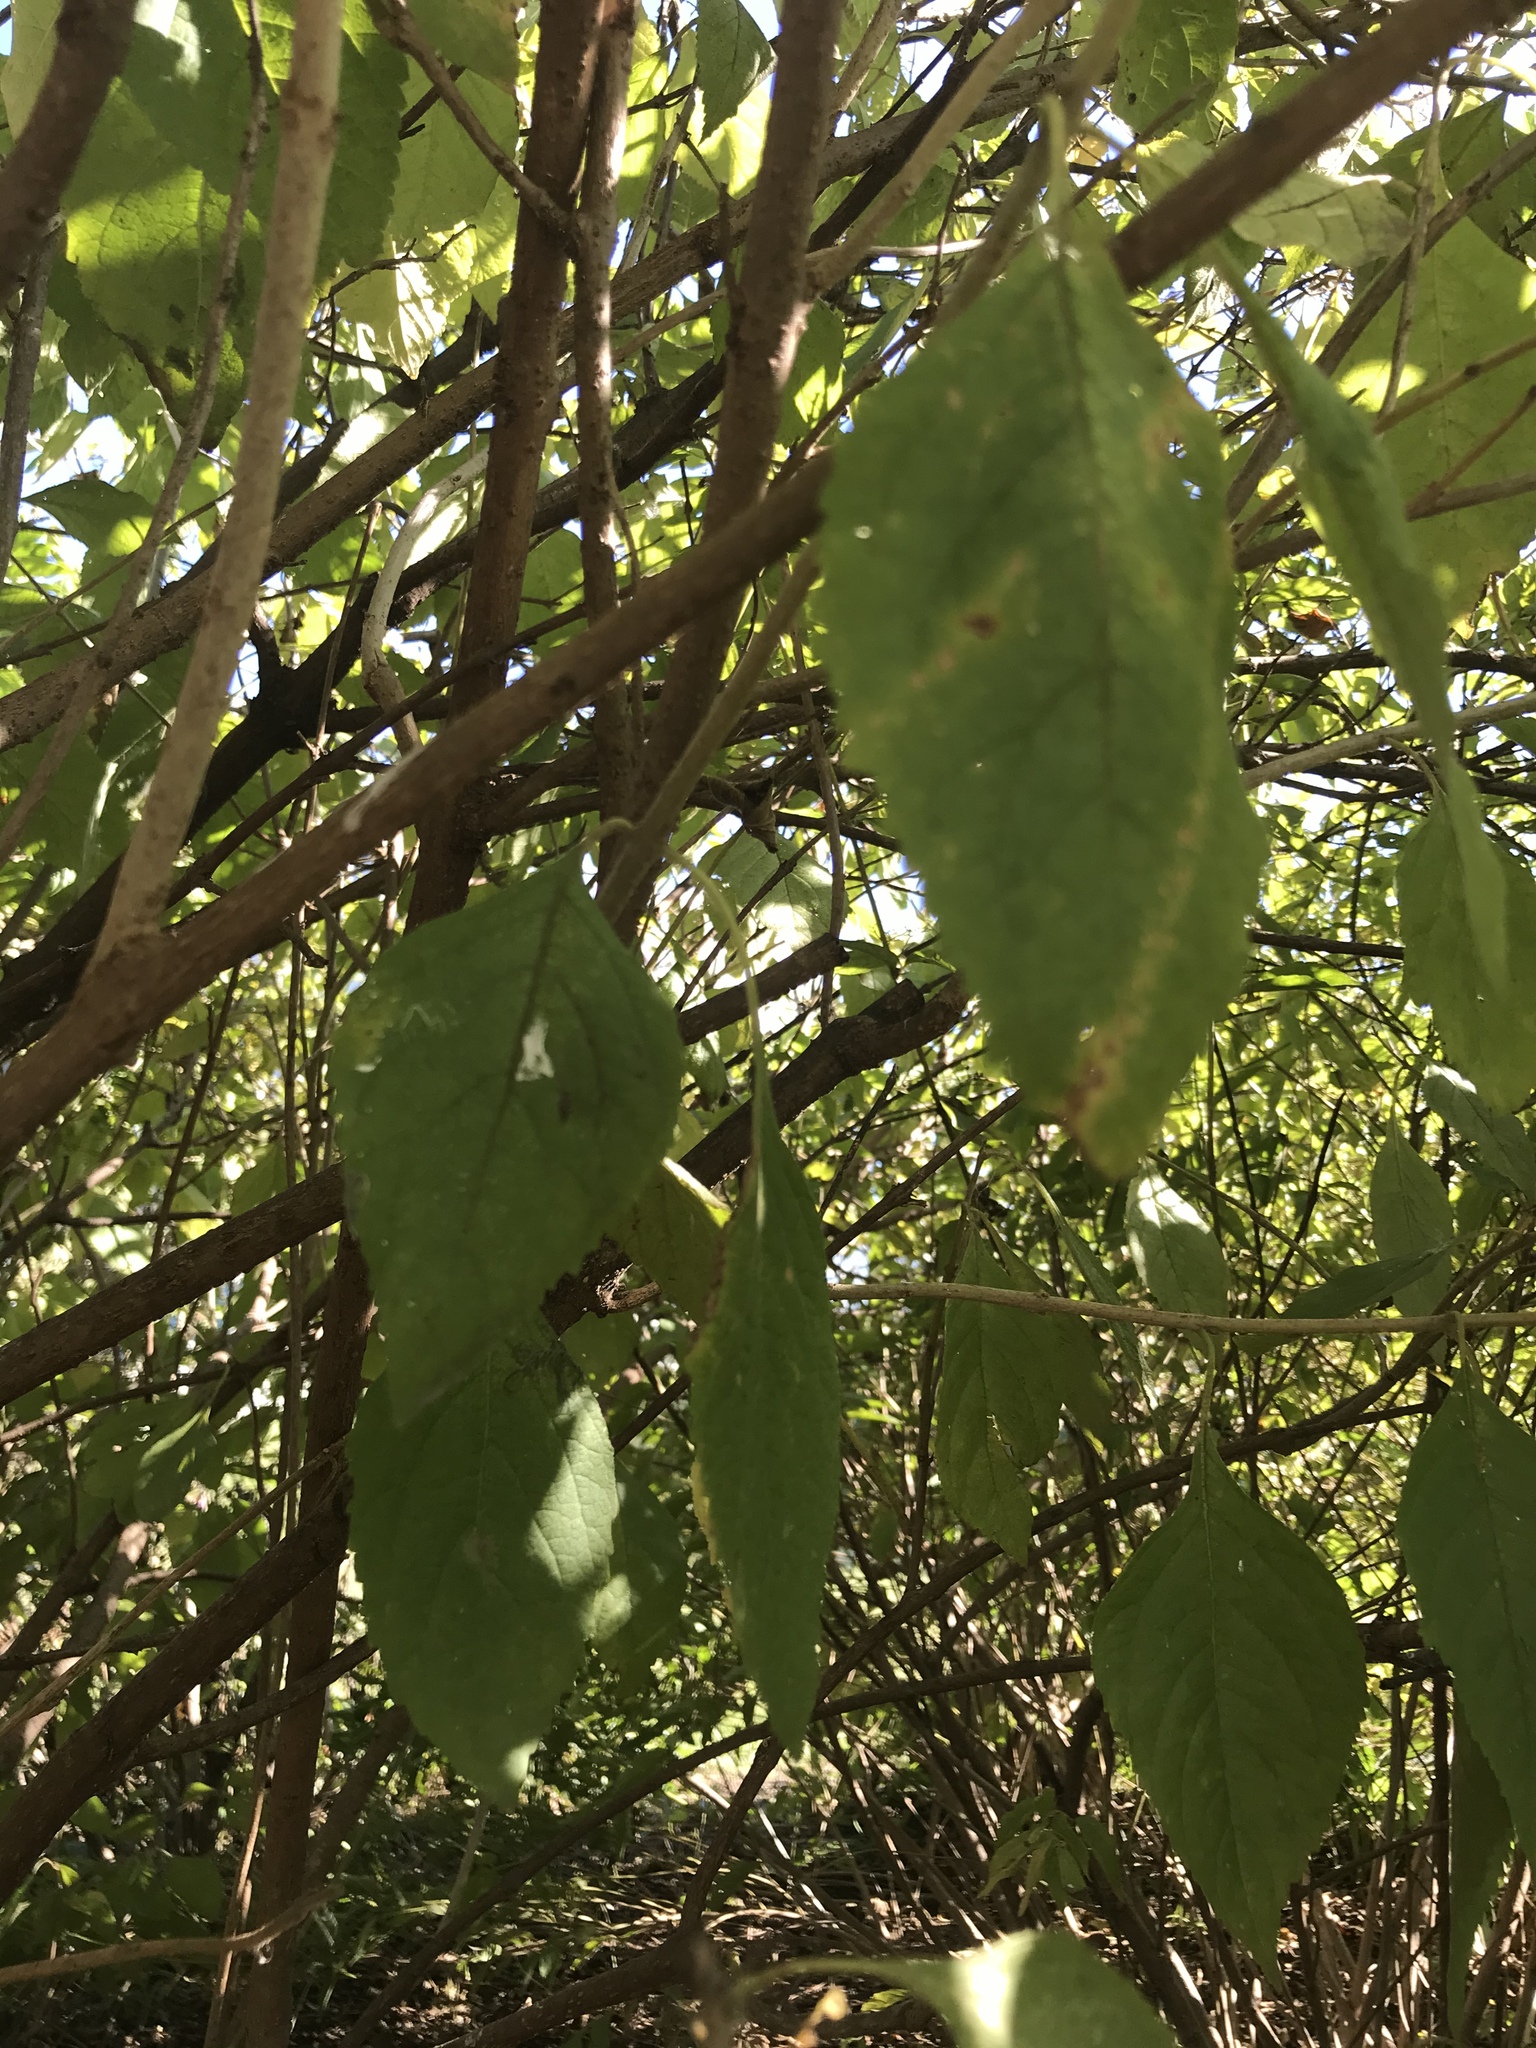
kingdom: Plantae
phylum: Tracheophyta
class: Magnoliopsida
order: Lamiales
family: Lamiaceae
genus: Callicarpa
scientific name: Callicarpa americana
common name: American beautyberry
